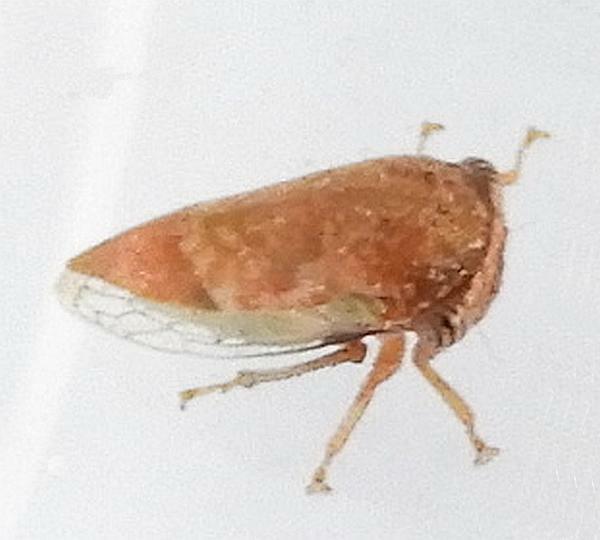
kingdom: Animalia
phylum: Arthropoda
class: Insecta
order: Hemiptera
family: Membracidae
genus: Idioderma
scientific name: Idioderma virescens
